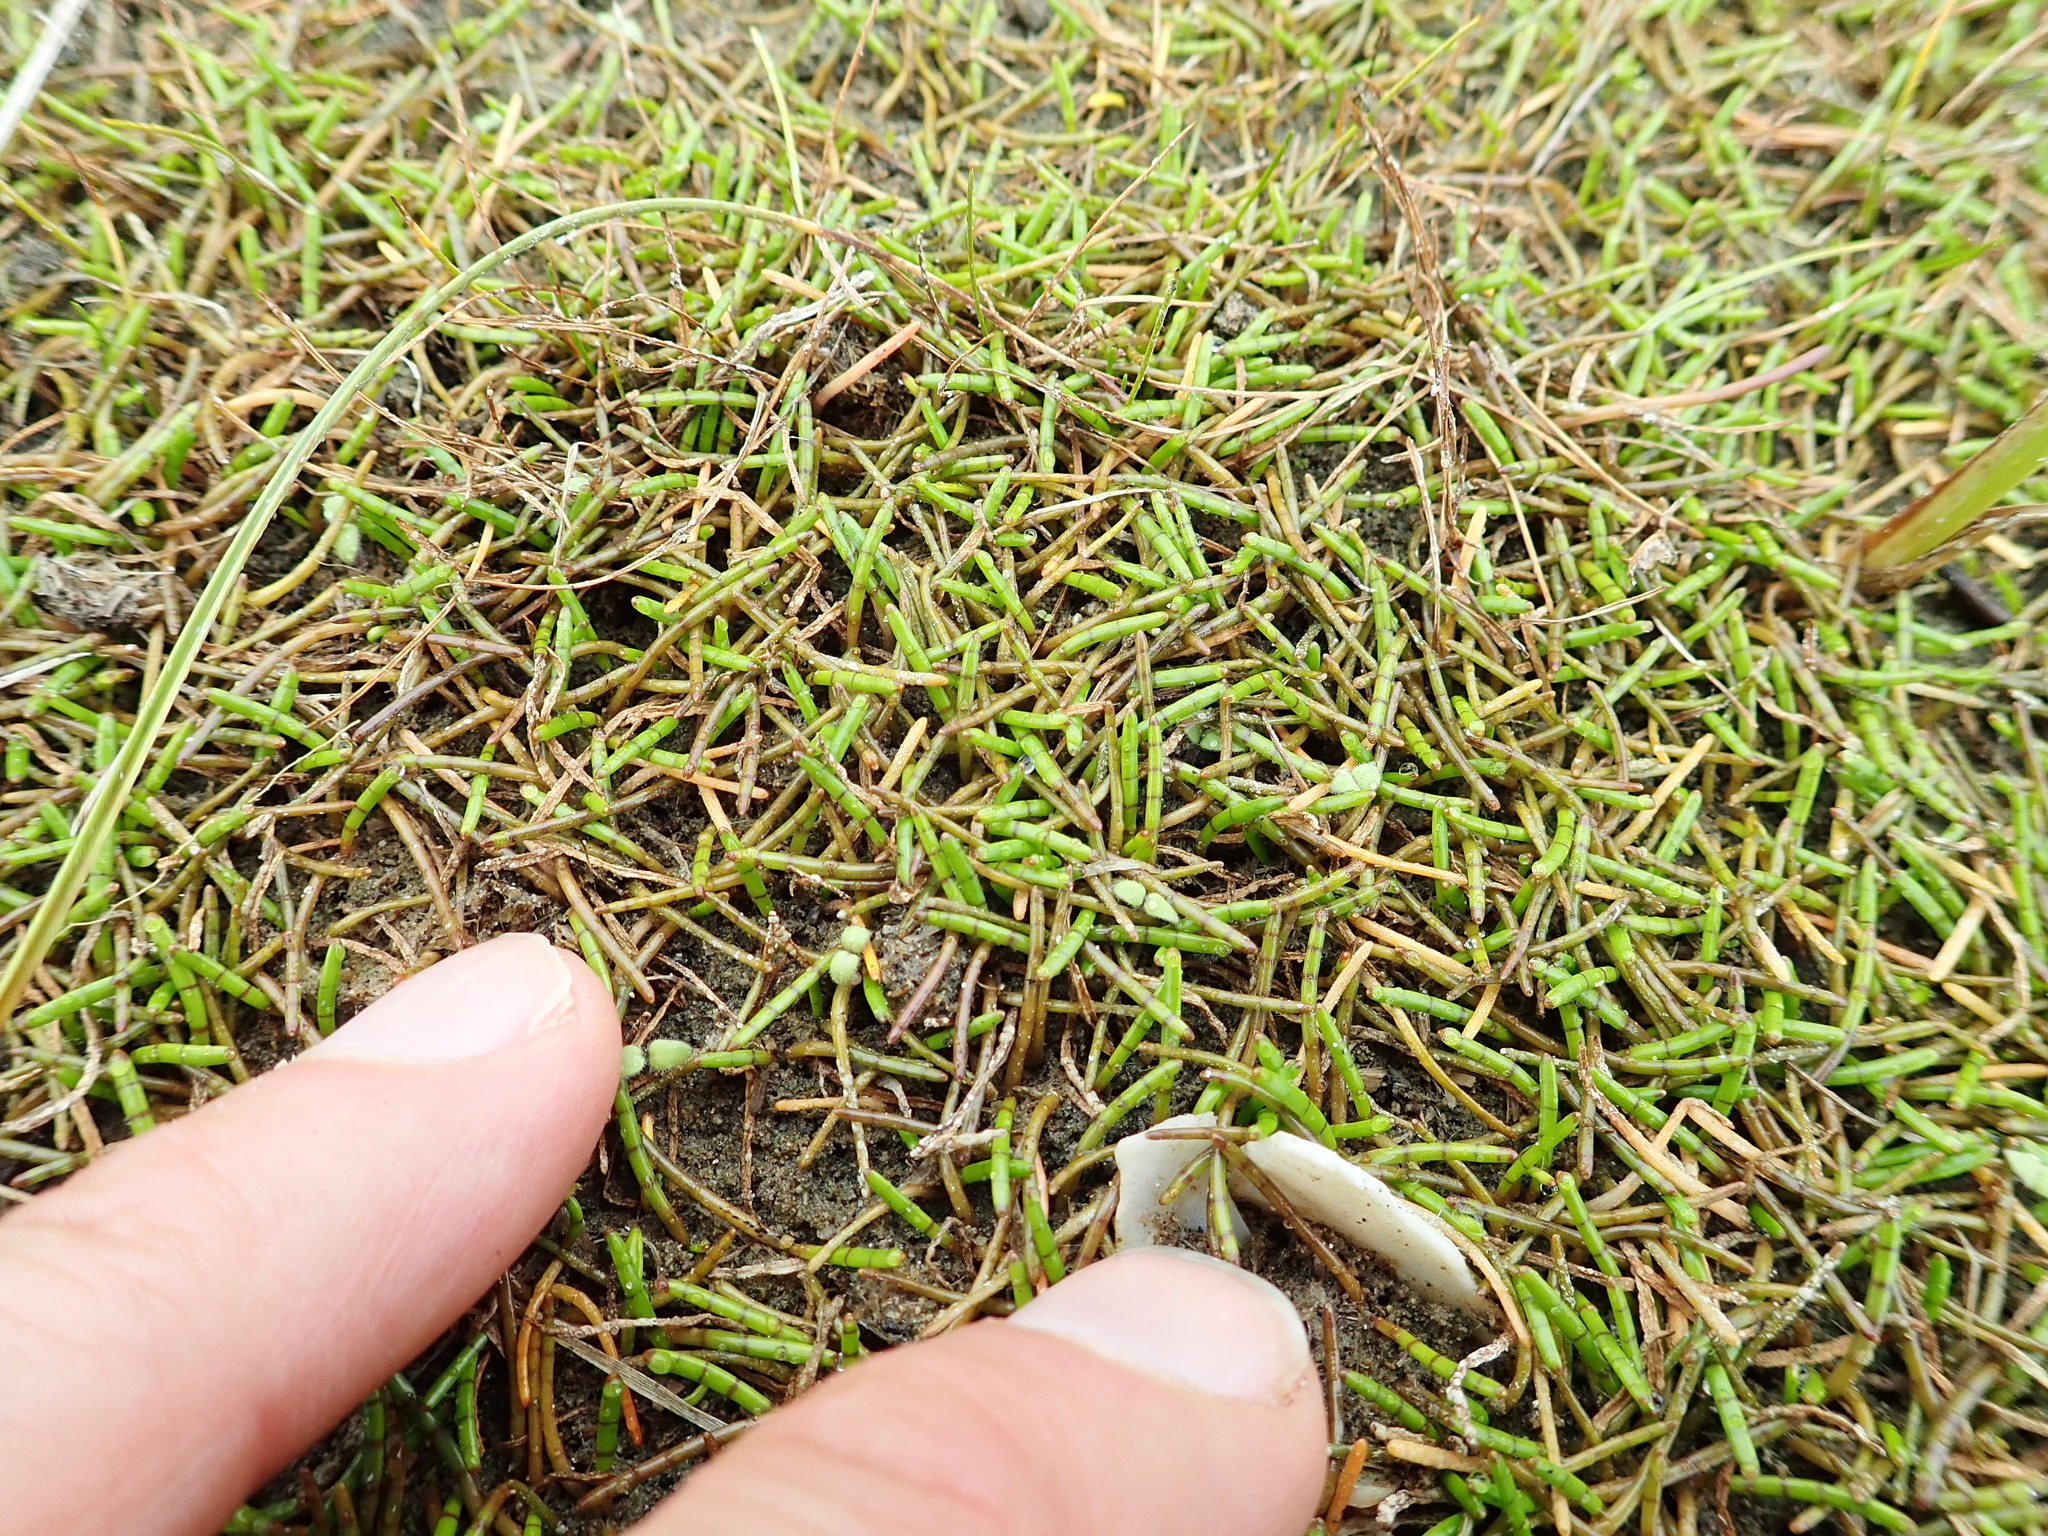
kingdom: Plantae
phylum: Tracheophyta
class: Magnoliopsida
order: Apiales
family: Apiaceae
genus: Lilaeopsis
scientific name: Lilaeopsis novae-zelandiae
